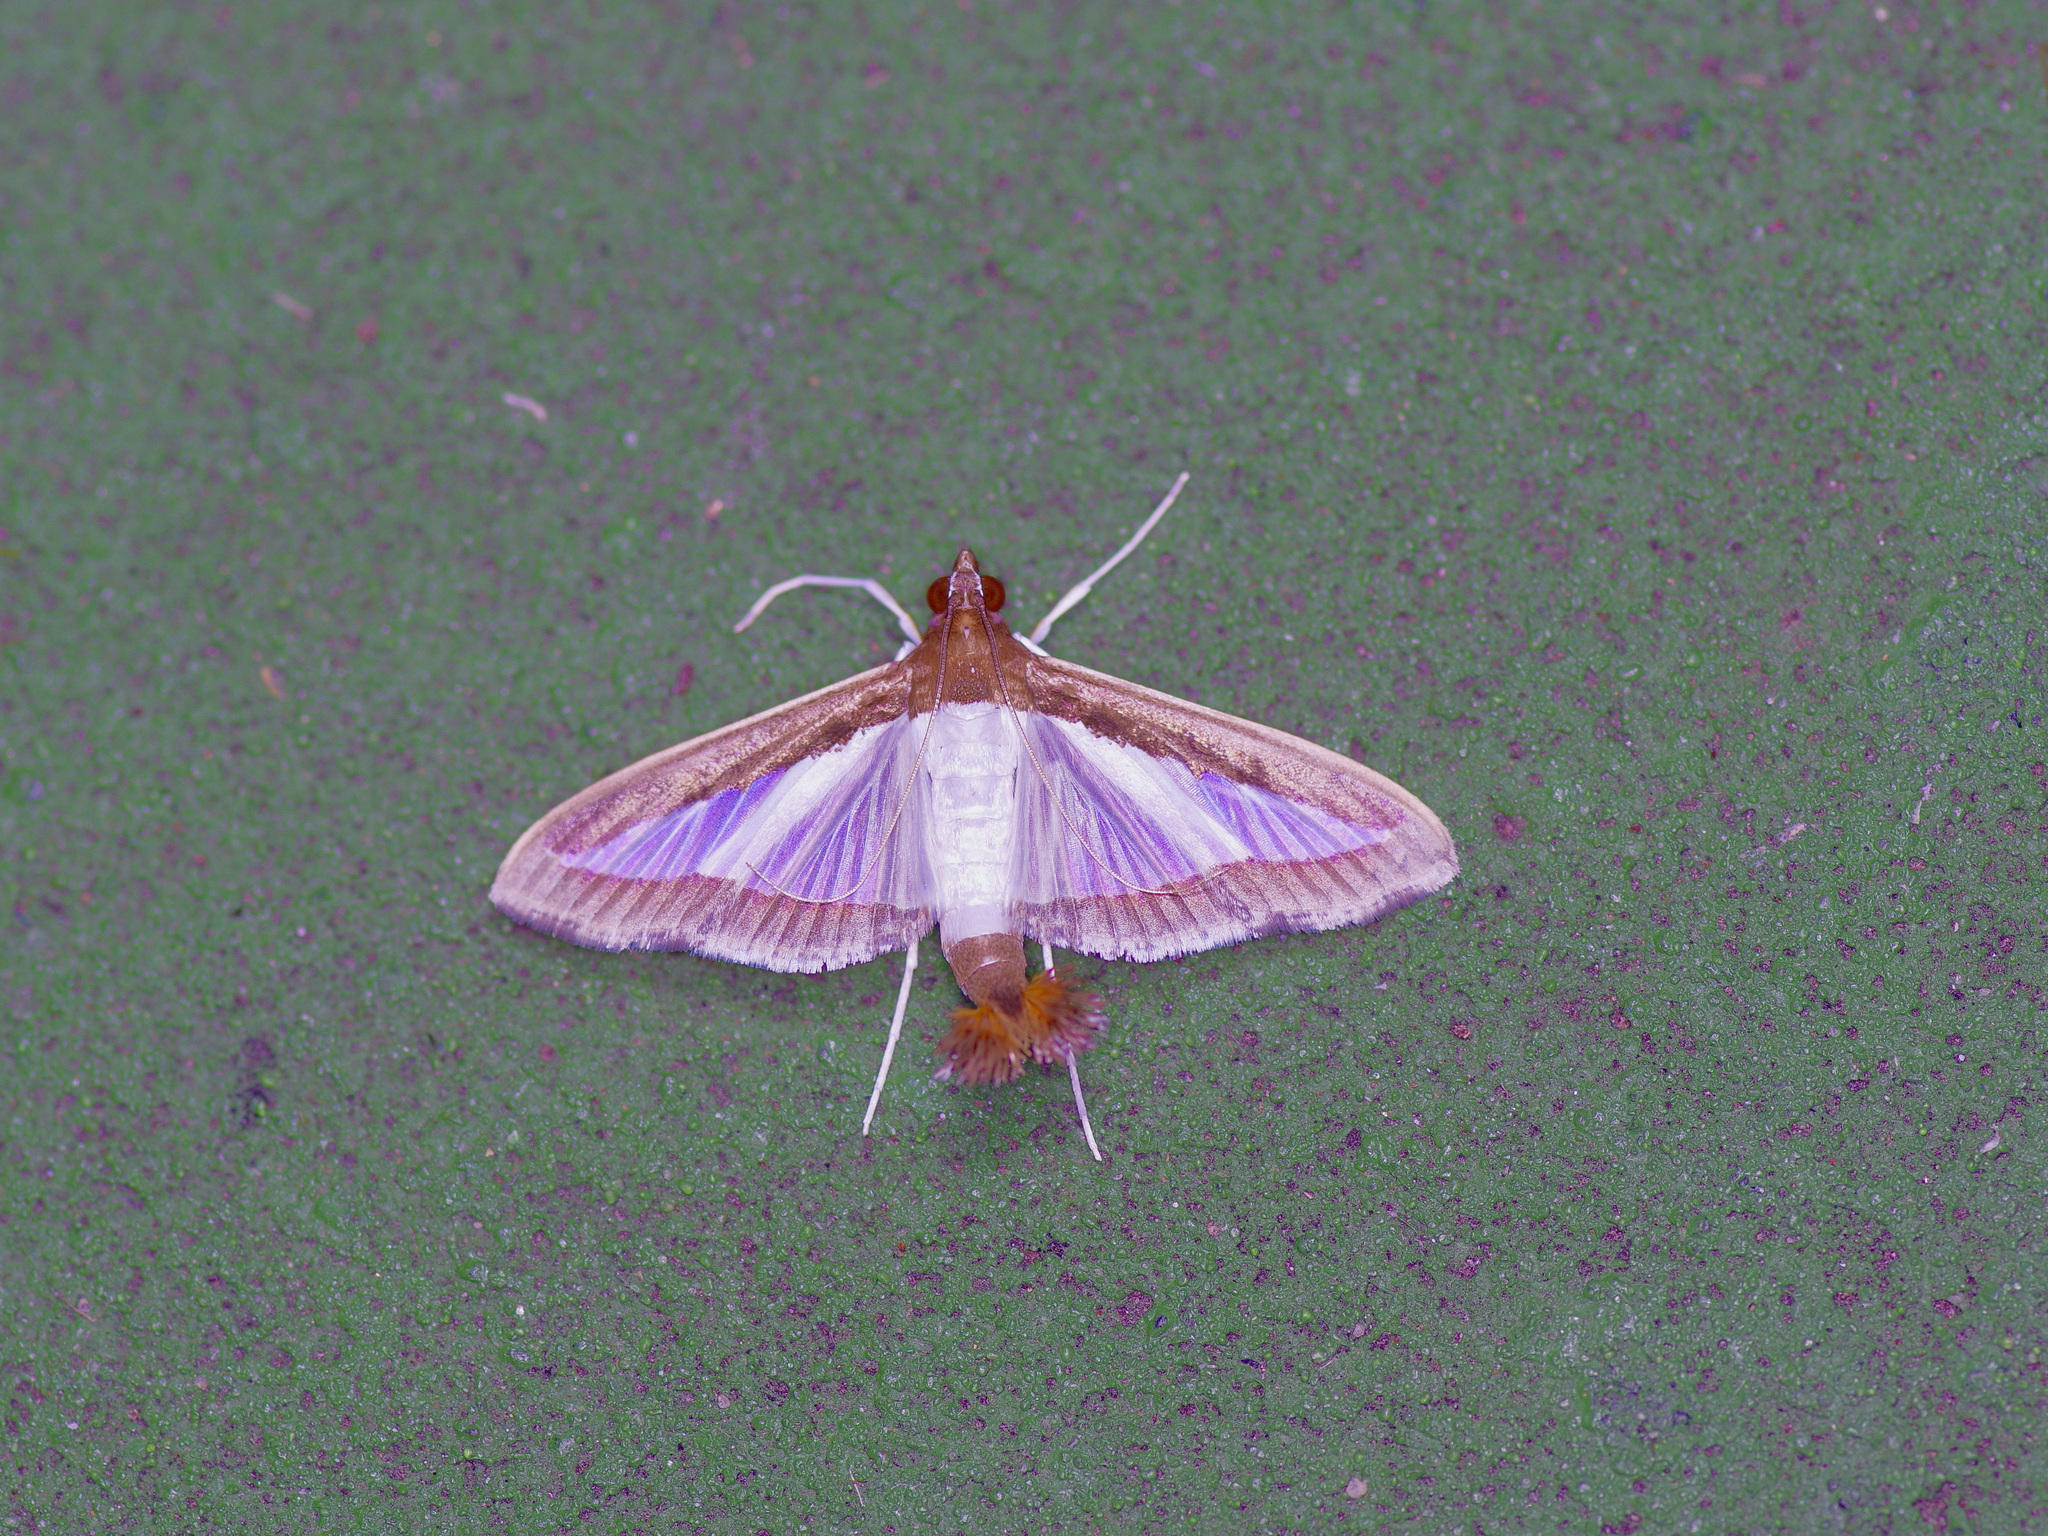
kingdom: Animalia
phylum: Arthropoda
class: Insecta
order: Lepidoptera
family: Crambidae
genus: Diaphania
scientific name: Diaphania hyalinata
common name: Melonworm
